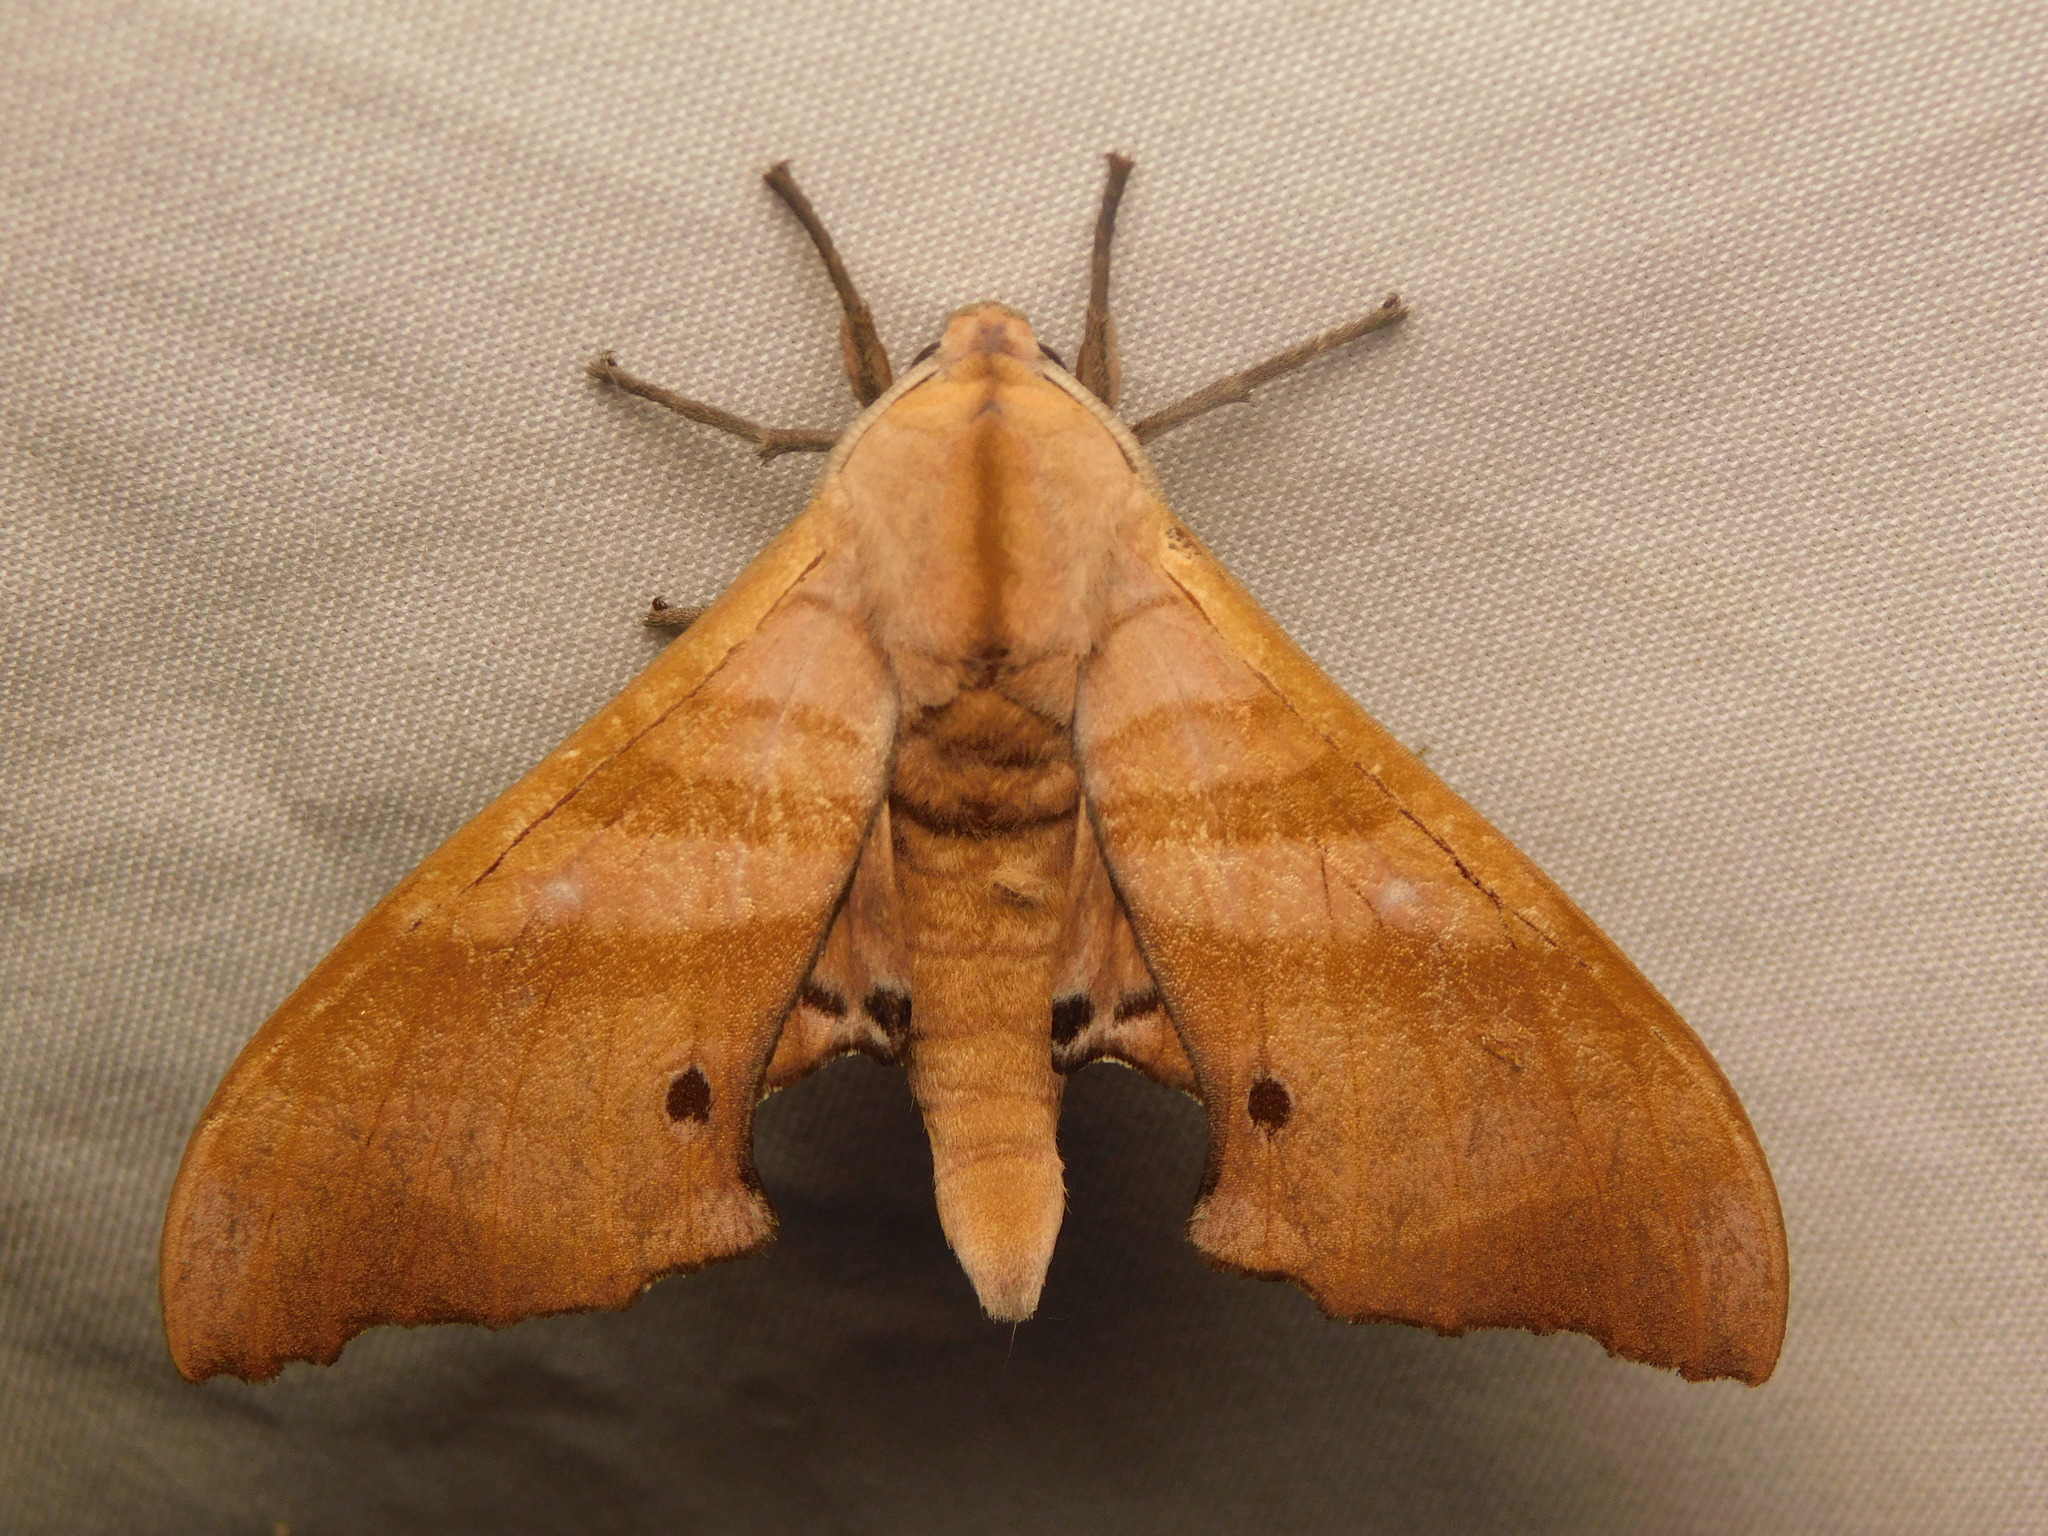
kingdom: Animalia
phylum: Arthropoda
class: Insecta
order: Lepidoptera
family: Sphingidae
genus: Marumba
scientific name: Marumba nympha
